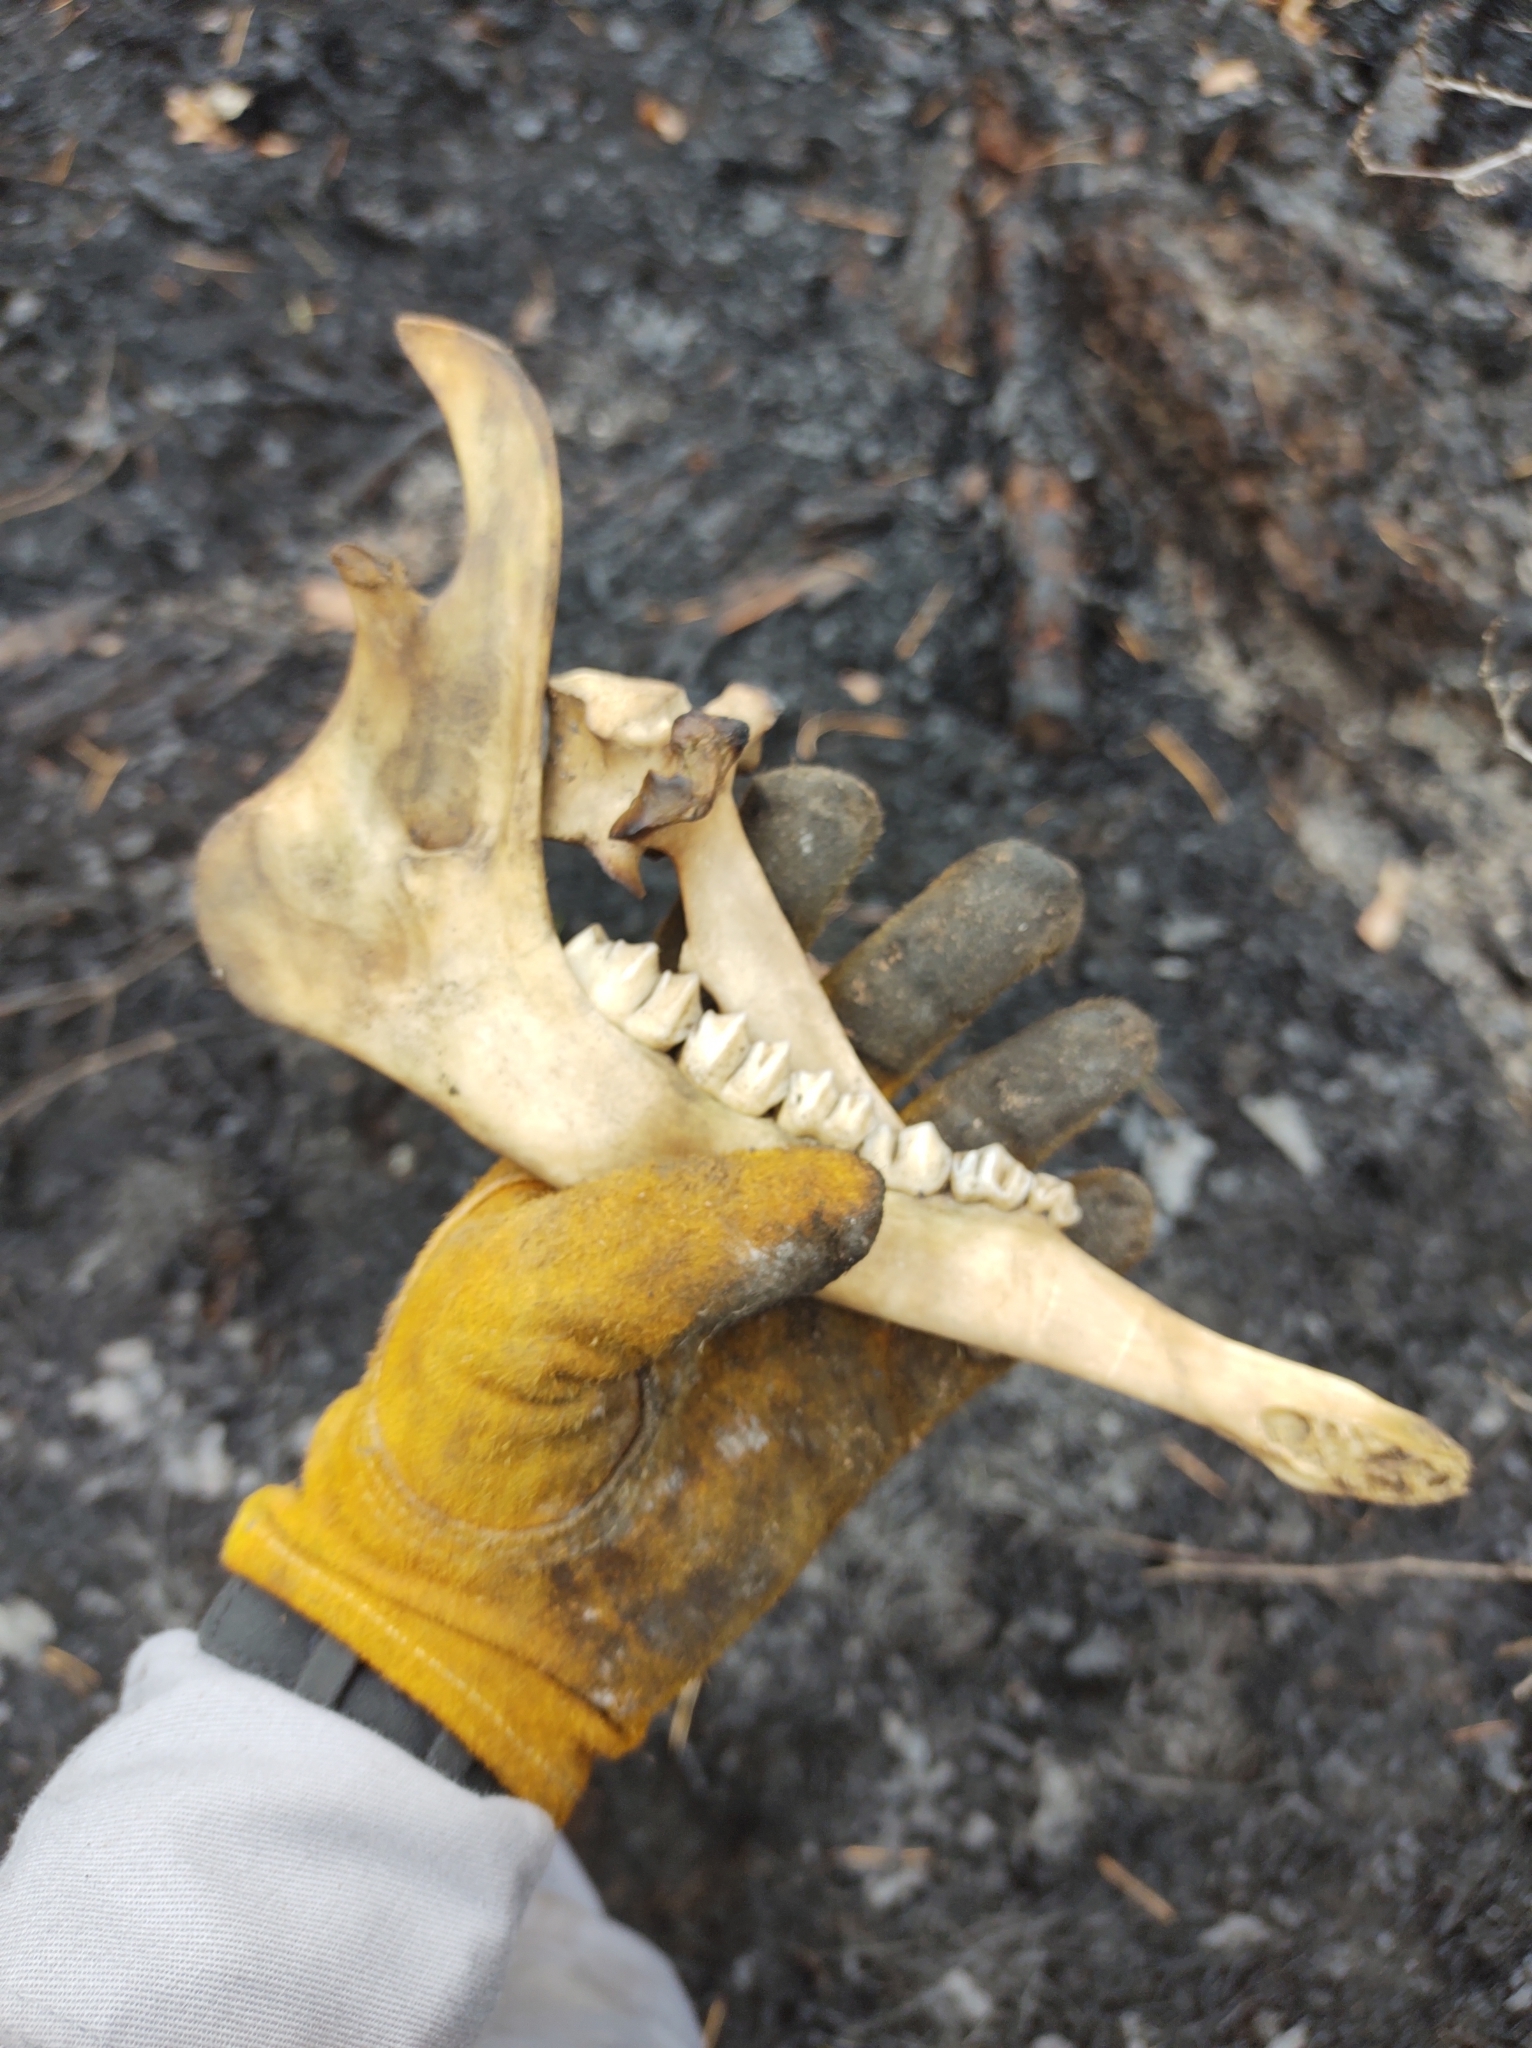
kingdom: Animalia
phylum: Chordata
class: Mammalia
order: Artiodactyla
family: Cervidae
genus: Odocoileus
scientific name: Odocoileus virginianus
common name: White-tailed deer
